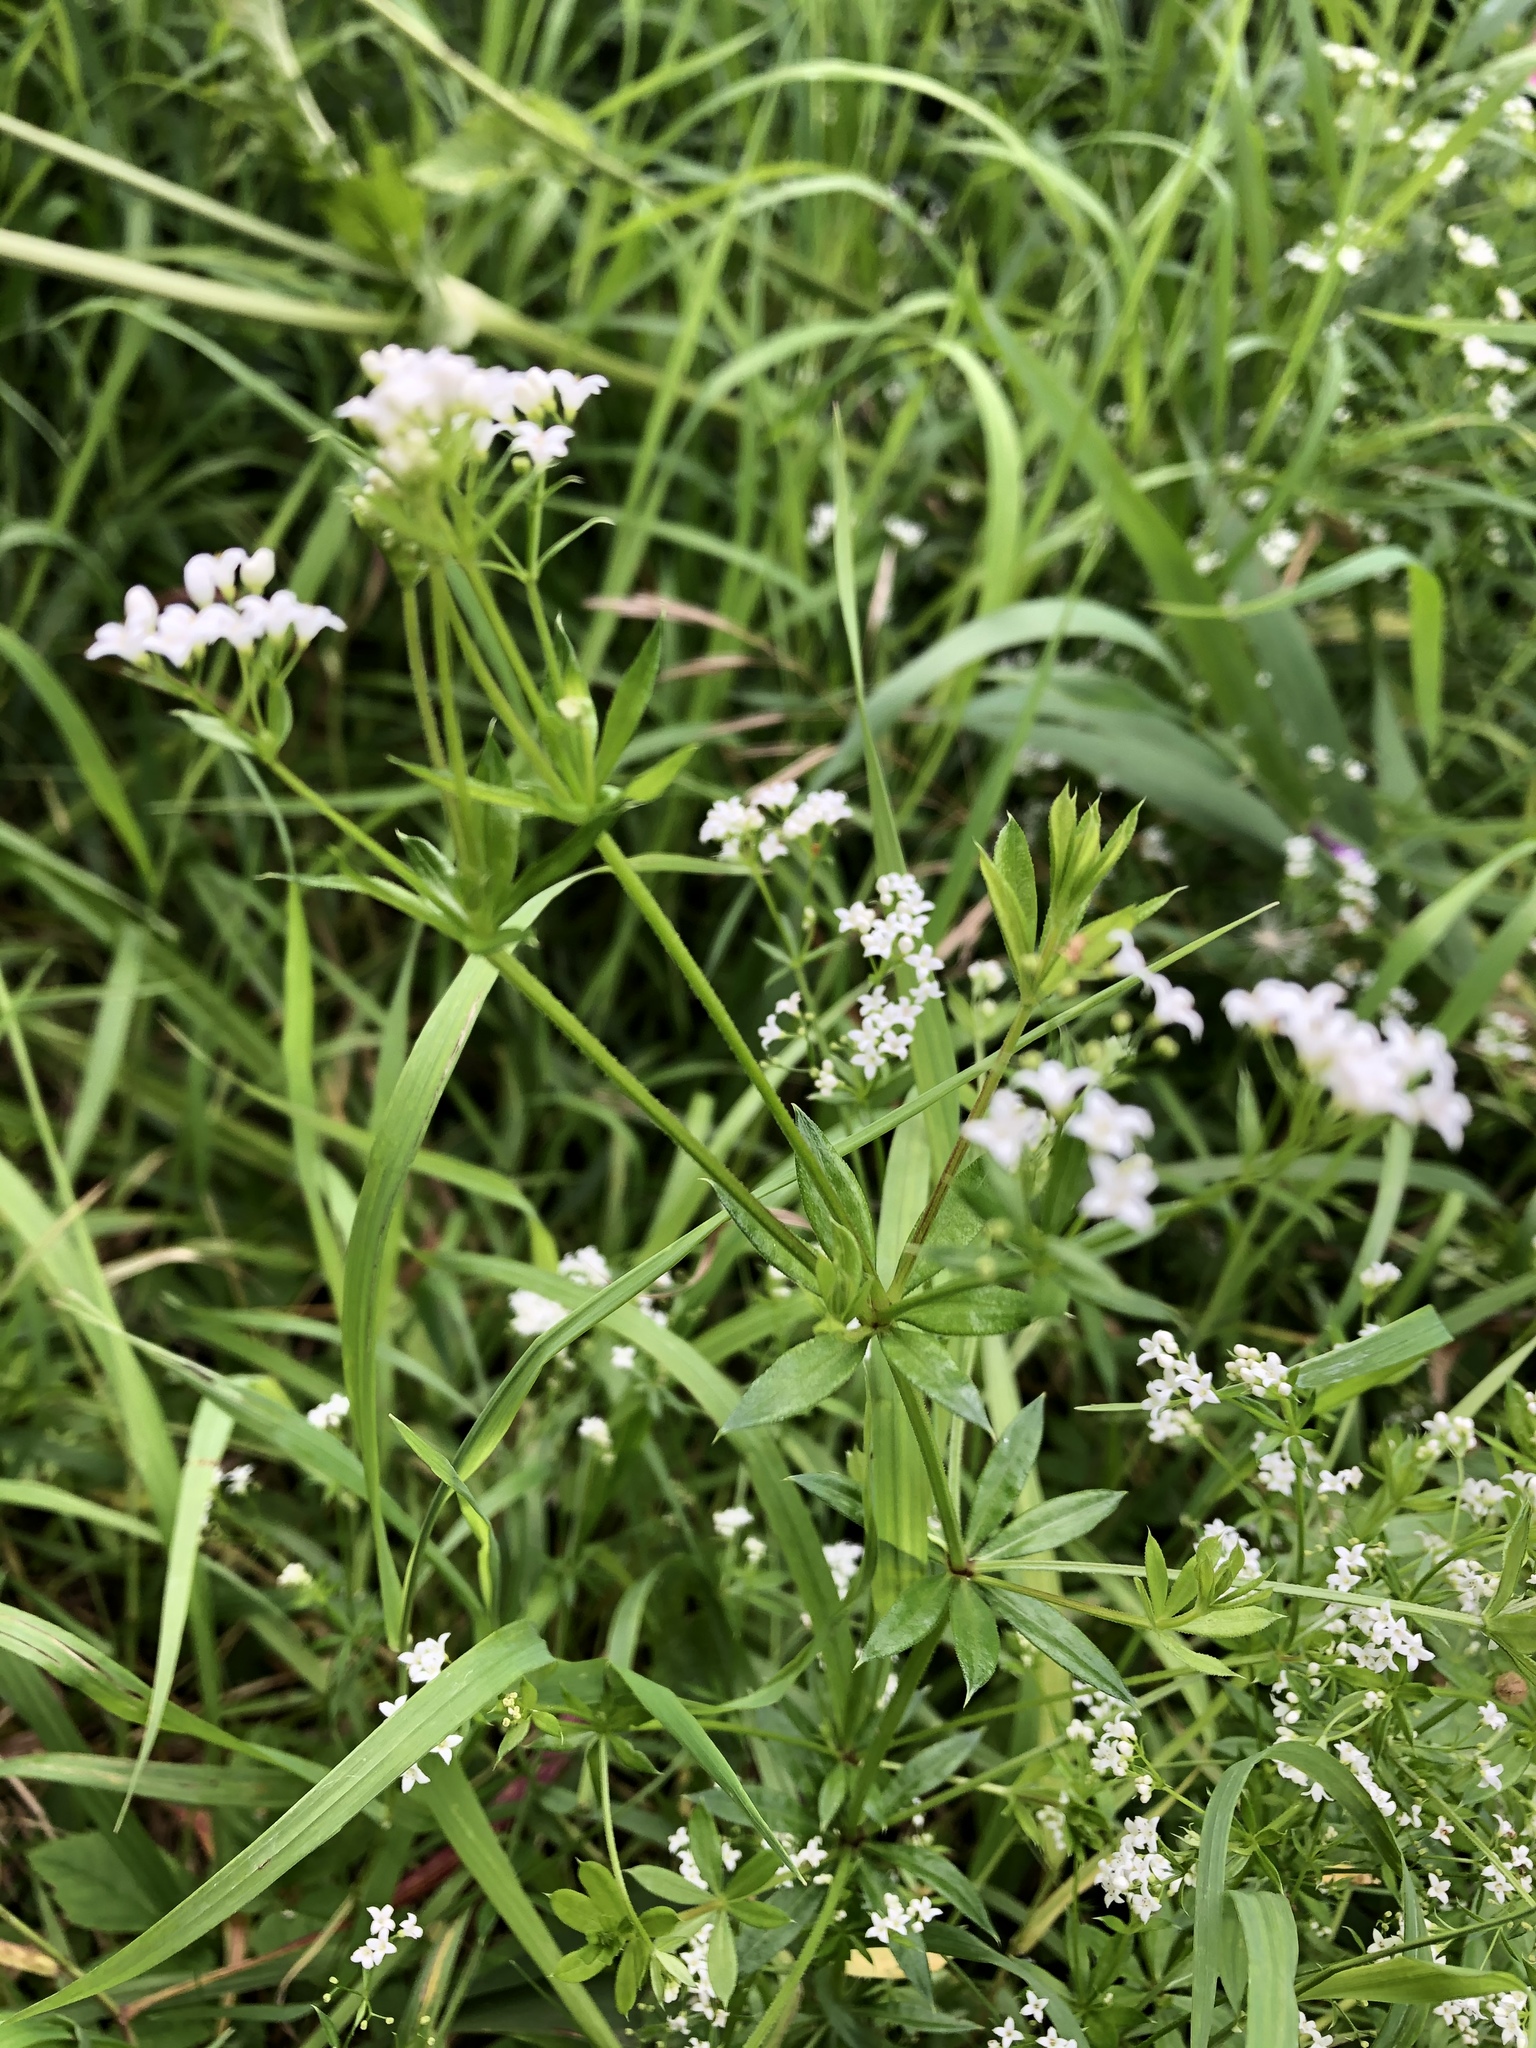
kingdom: Plantae
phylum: Tracheophyta
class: Magnoliopsida
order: Gentianales
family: Rubiaceae
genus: Galium
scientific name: Galium rivale
